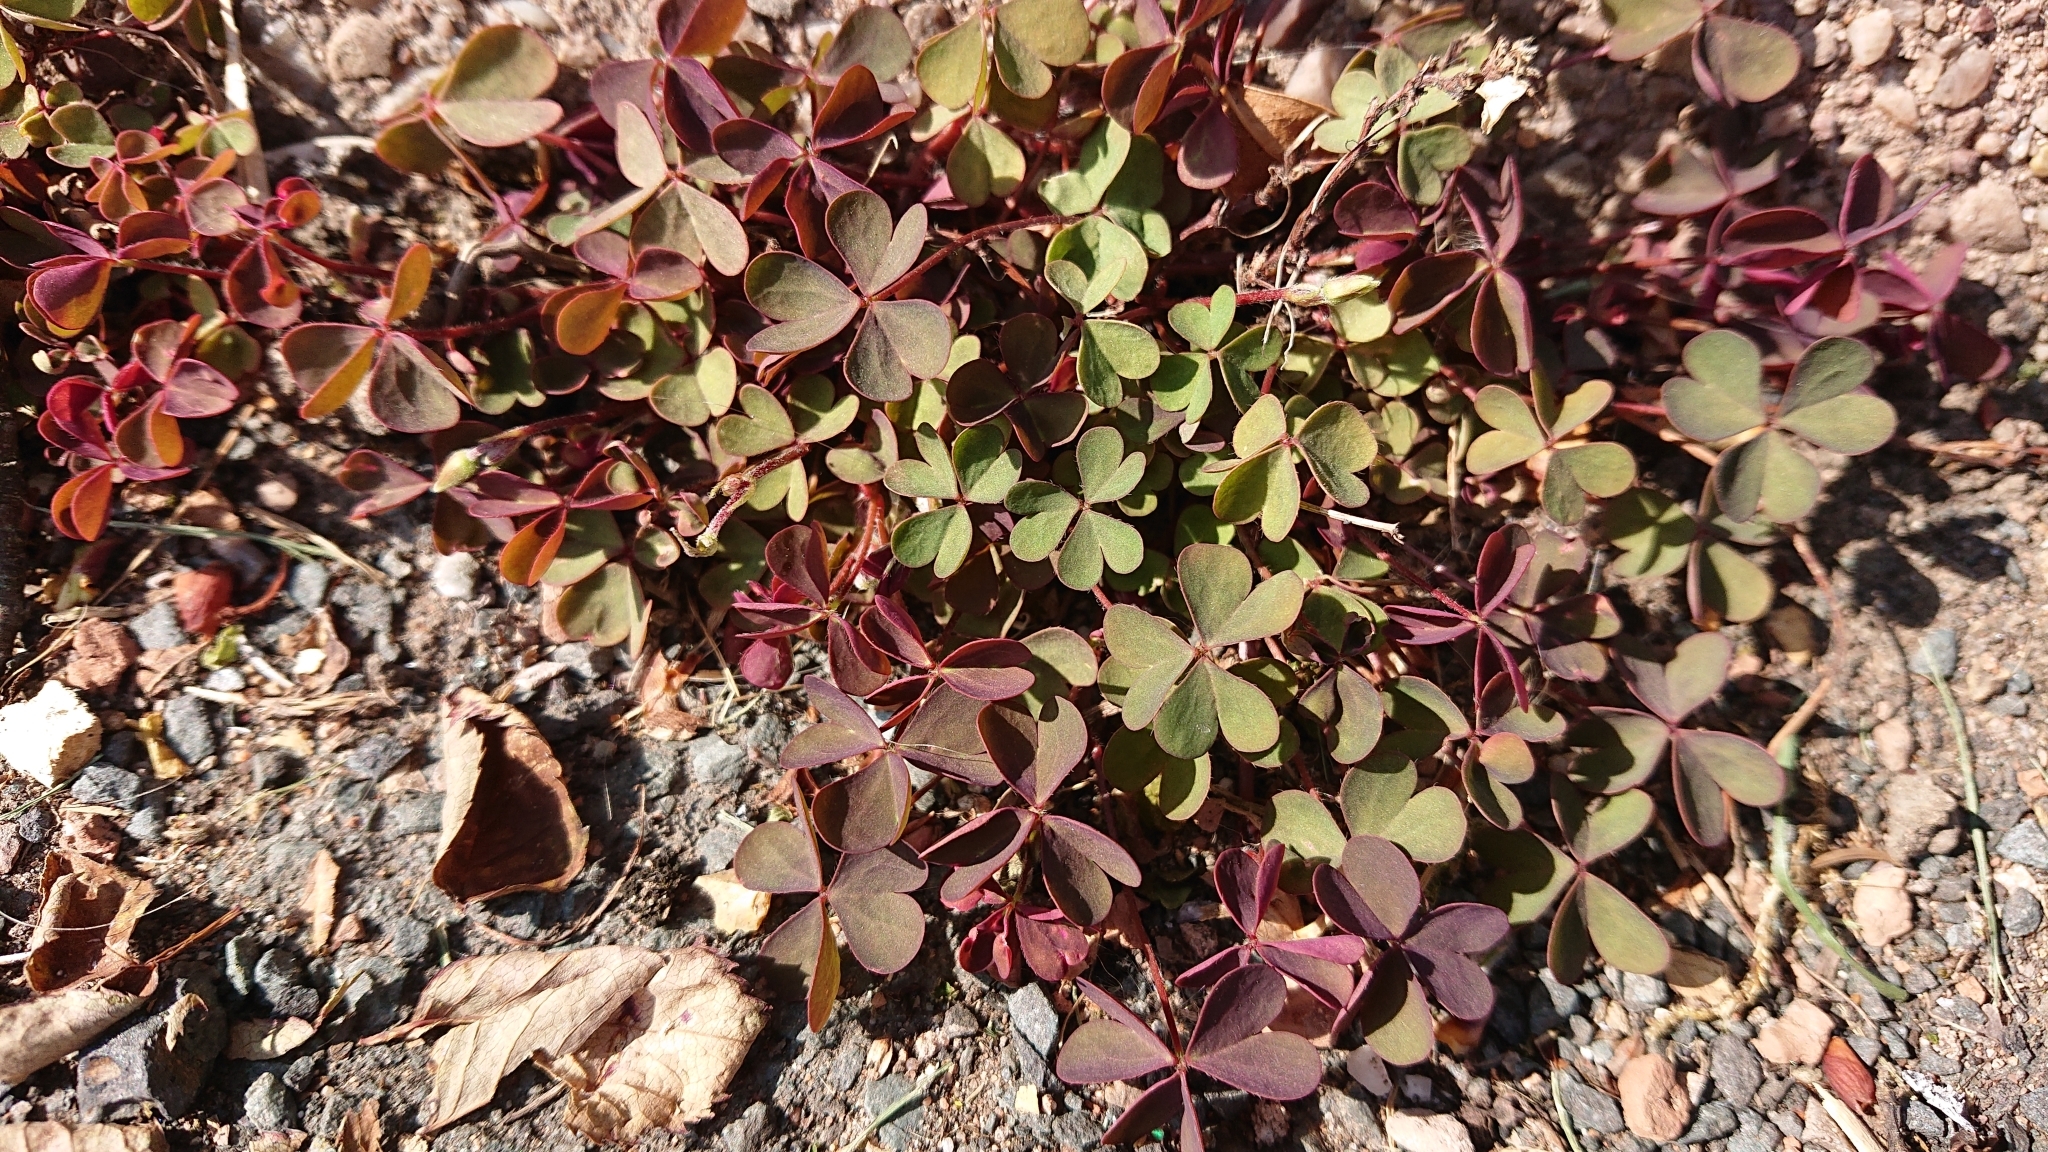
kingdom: Plantae
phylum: Tracheophyta
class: Magnoliopsida
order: Oxalidales
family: Oxalidaceae
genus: Oxalis
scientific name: Oxalis corniculata
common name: Procumbent yellow-sorrel
